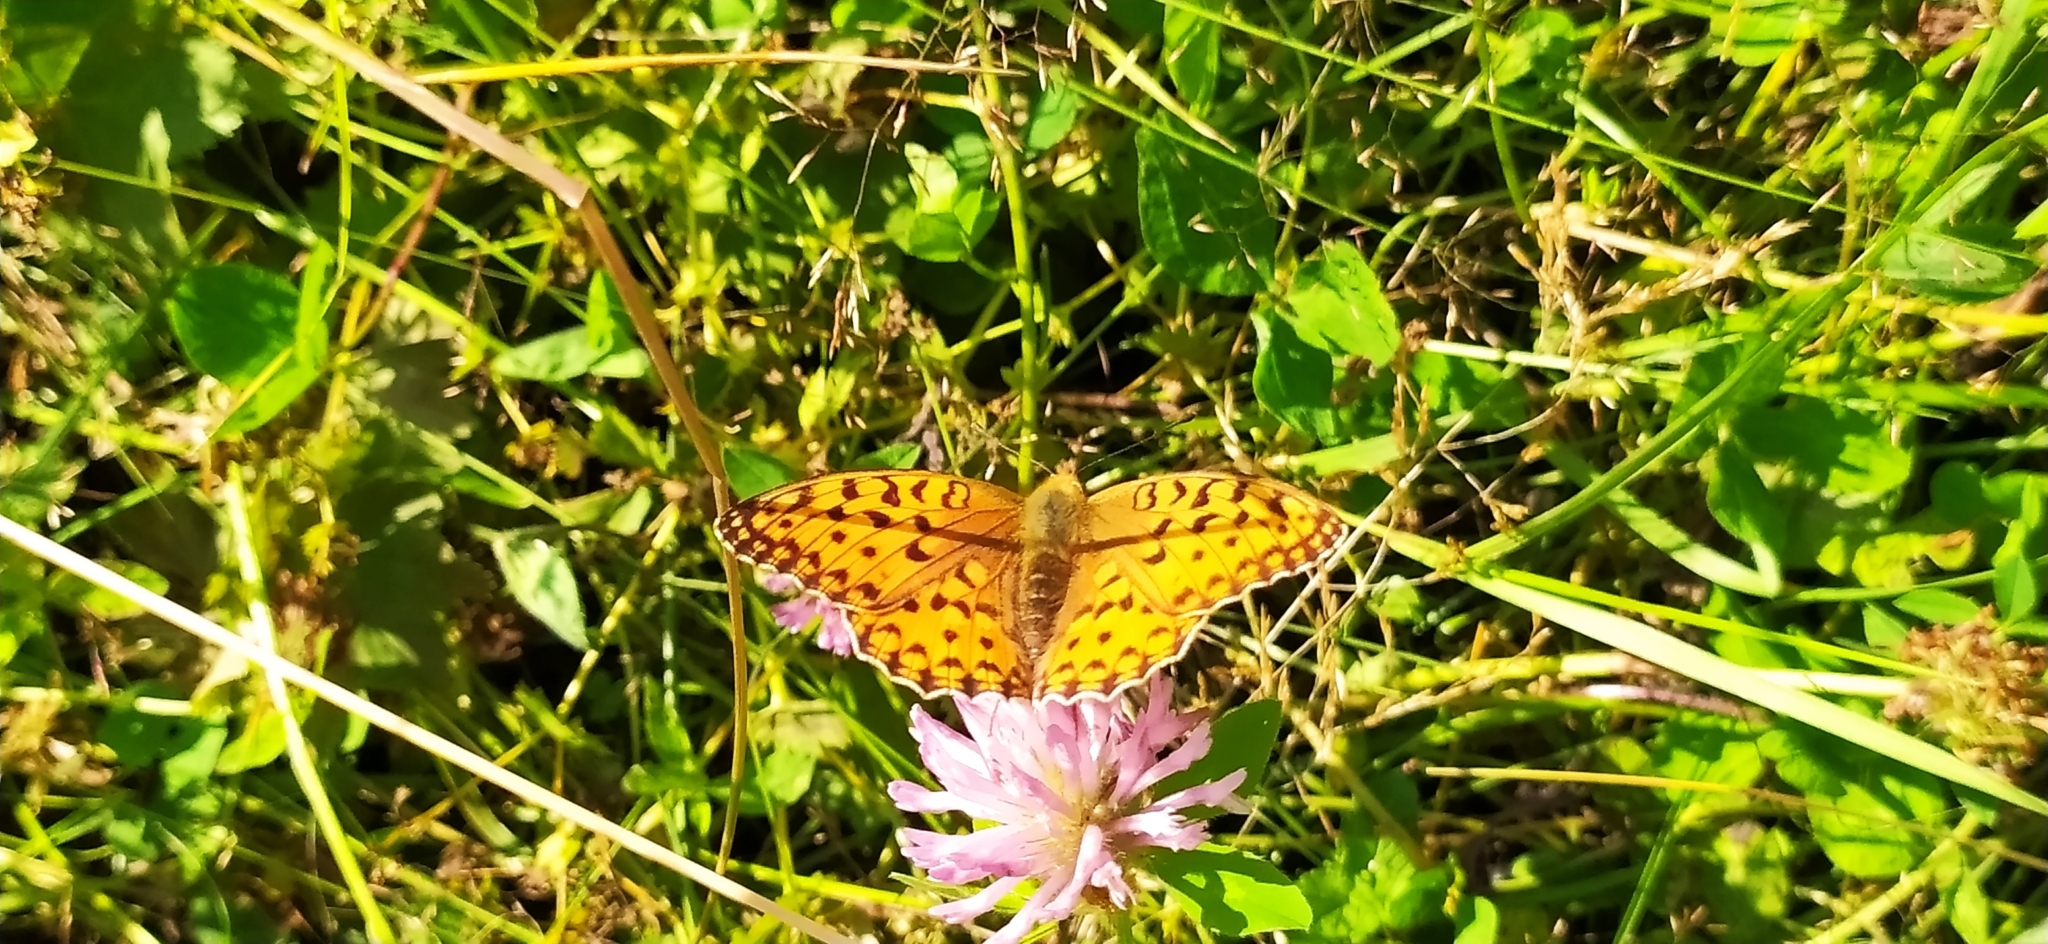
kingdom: Animalia
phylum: Arthropoda
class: Insecta
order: Lepidoptera
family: Nymphalidae
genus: Fabriciana
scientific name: Fabriciana adippe
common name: High brown fritillary
